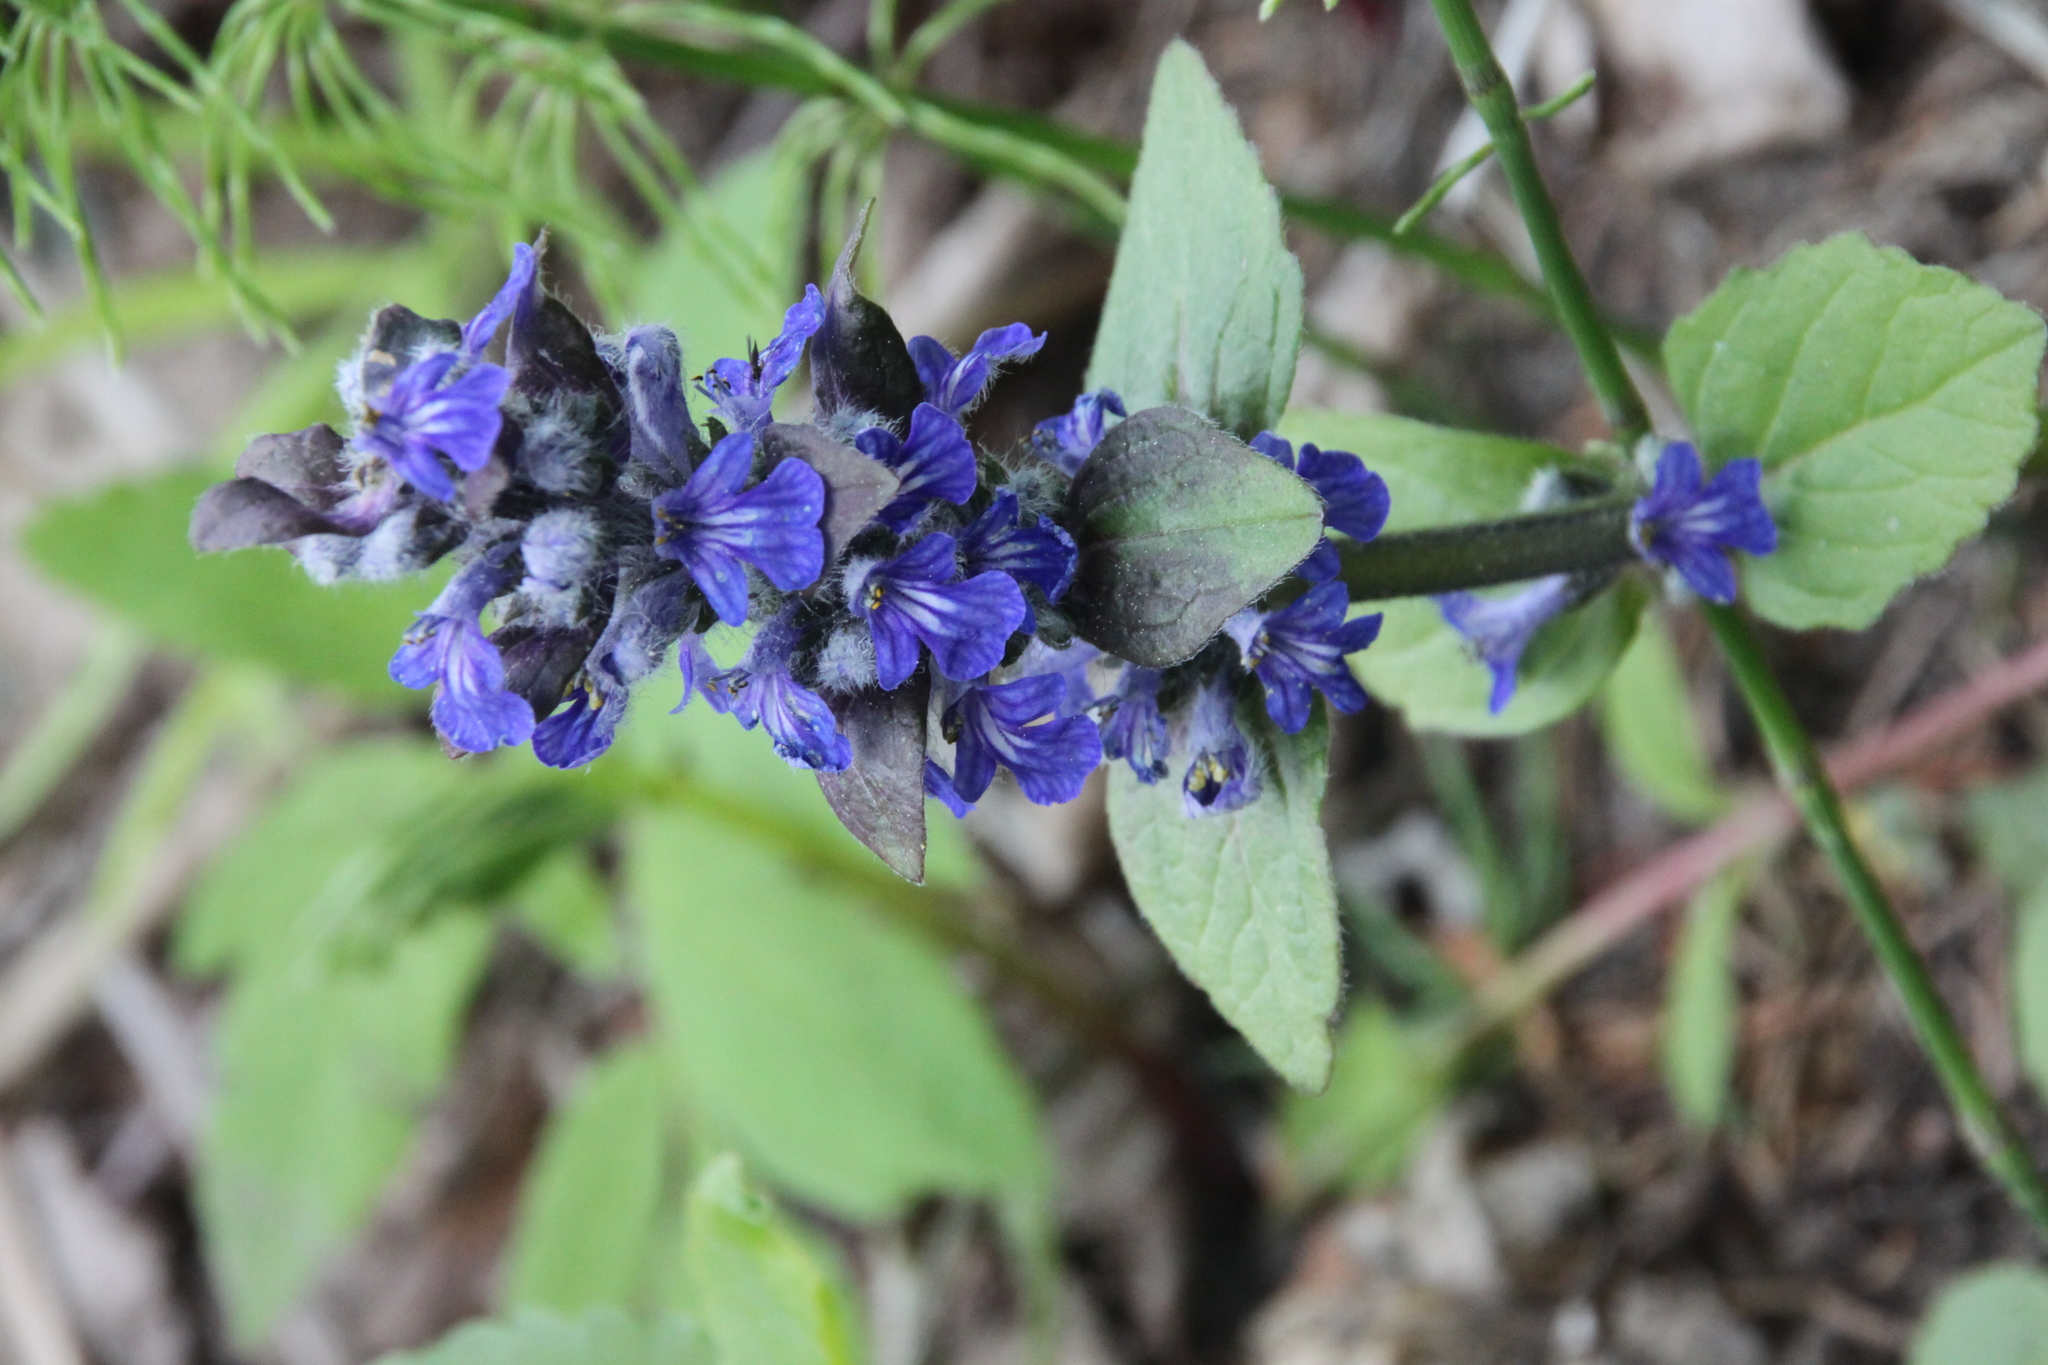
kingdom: Plantae
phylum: Tracheophyta
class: Magnoliopsida
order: Lamiales
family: Lamiaceae
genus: Ajuga
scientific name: Ajuga reptans
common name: Bugle
